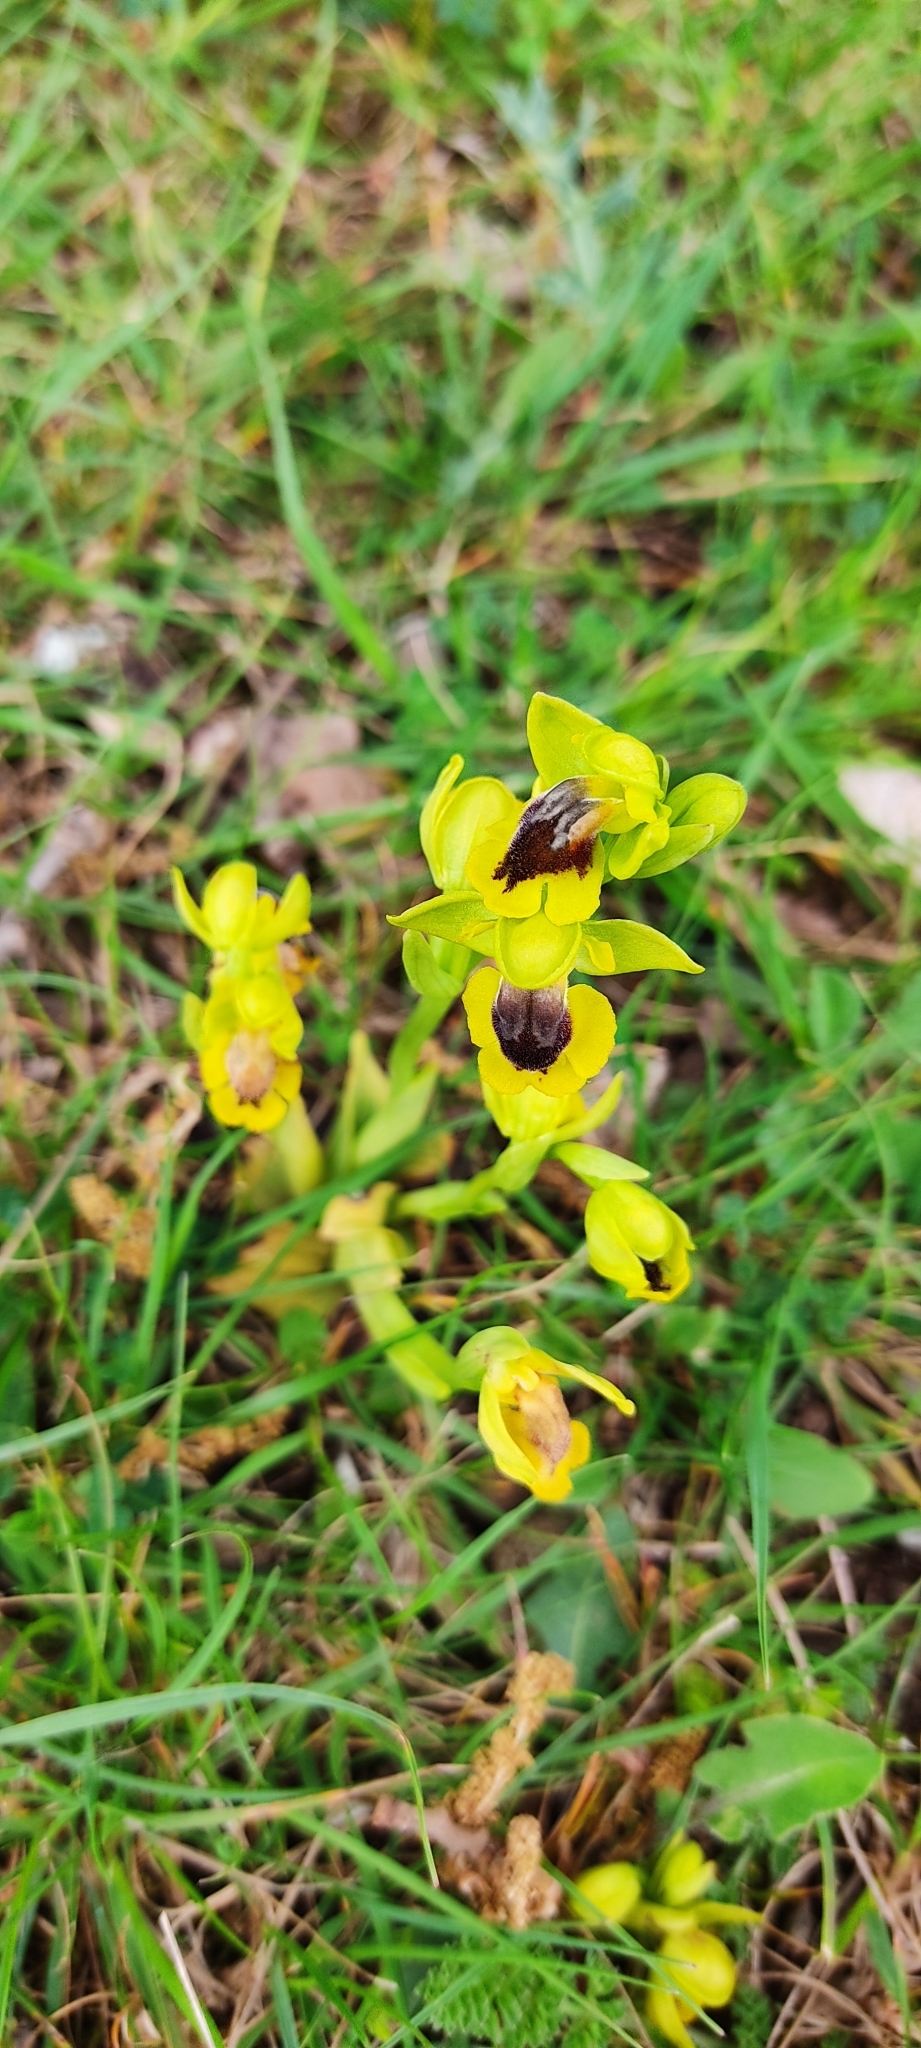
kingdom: Plantae
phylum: Tracheophyta
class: Liliopsida
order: Asparagales
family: Orchidaceae
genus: Ophrys
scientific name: Ophrys lutea
